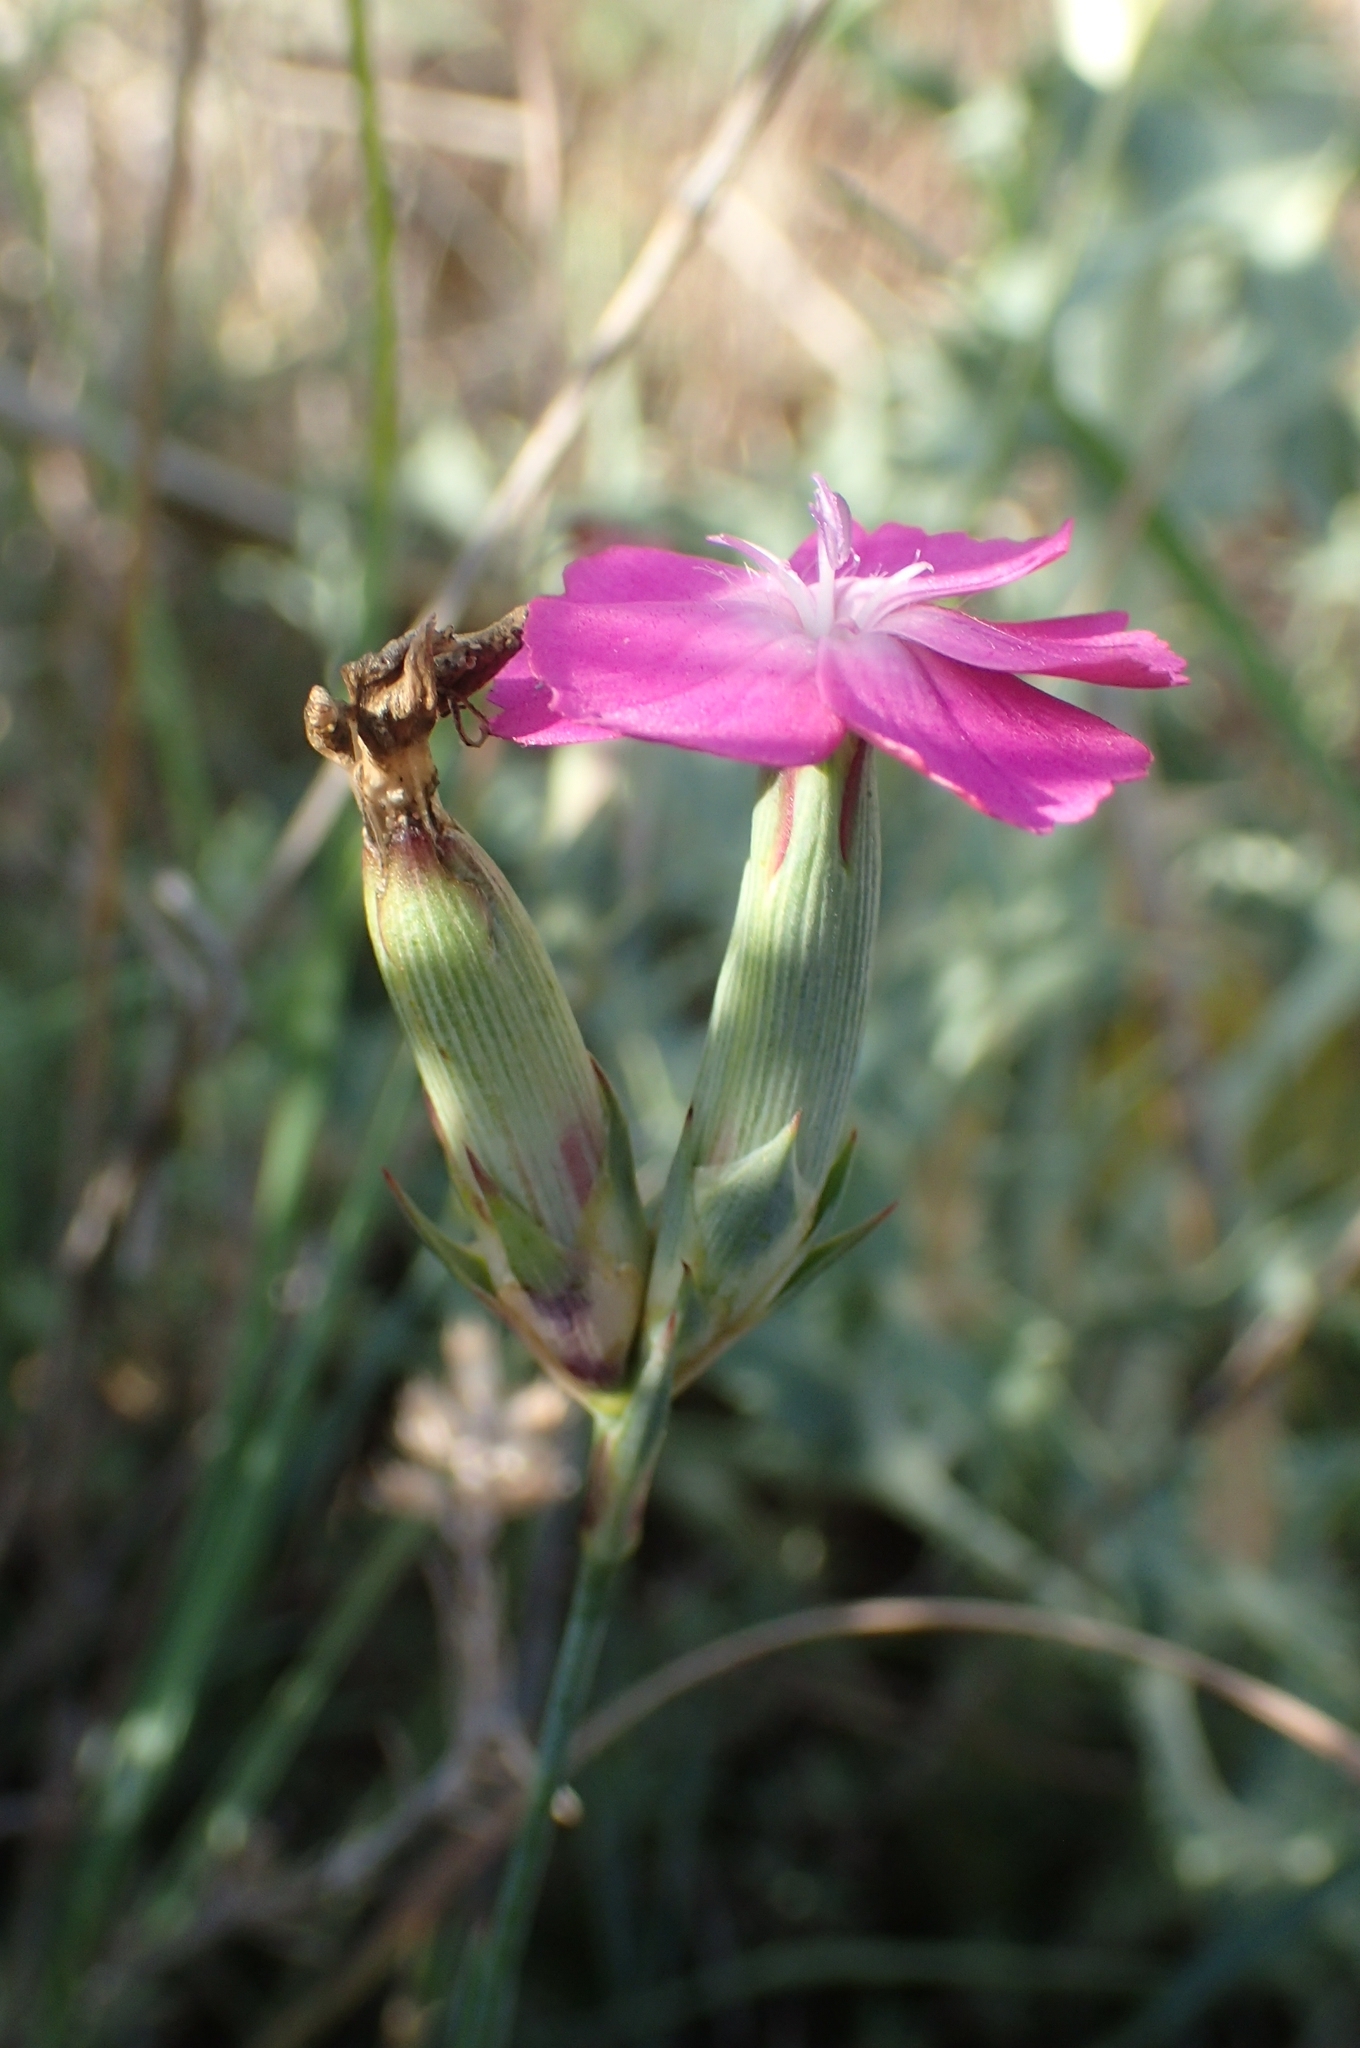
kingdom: Plantae
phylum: Tracheophyta
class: Magnoliopsida
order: Caryophyllales
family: Caryophyllaceae
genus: Dianthus
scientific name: Dianthus toletanus
